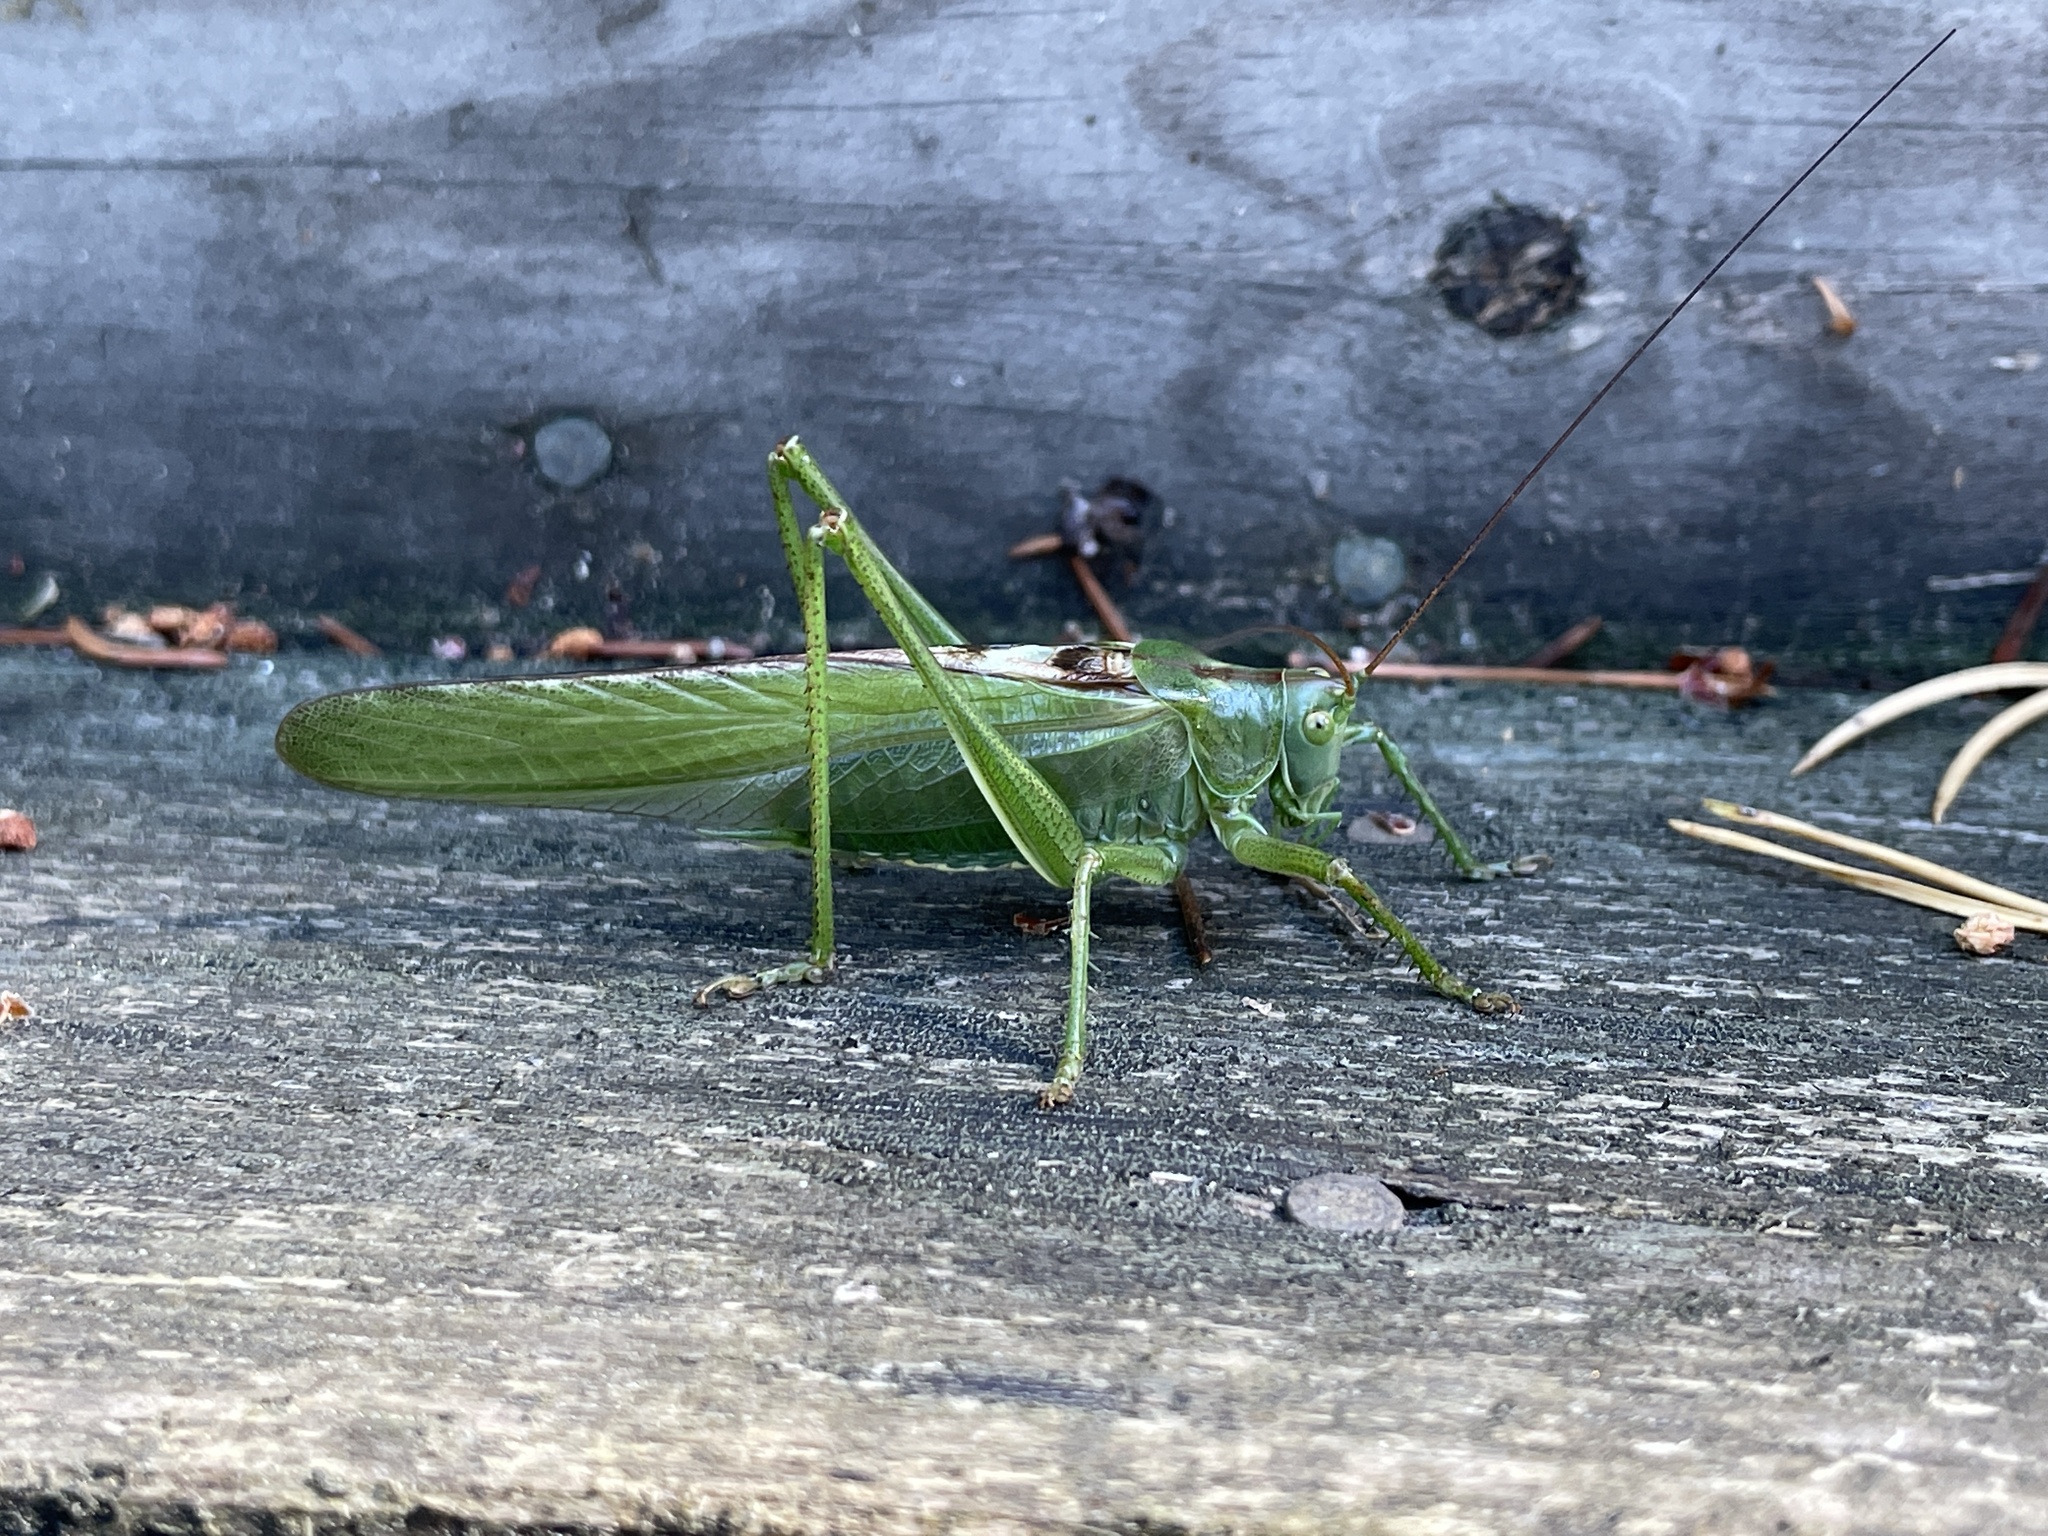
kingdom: Animalia
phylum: Arthropoda
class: Insecta
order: Orthoptera
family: Tettigoniidae
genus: Tettigonia
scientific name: Tettigonia viridissima
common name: Great green bush-cricket
